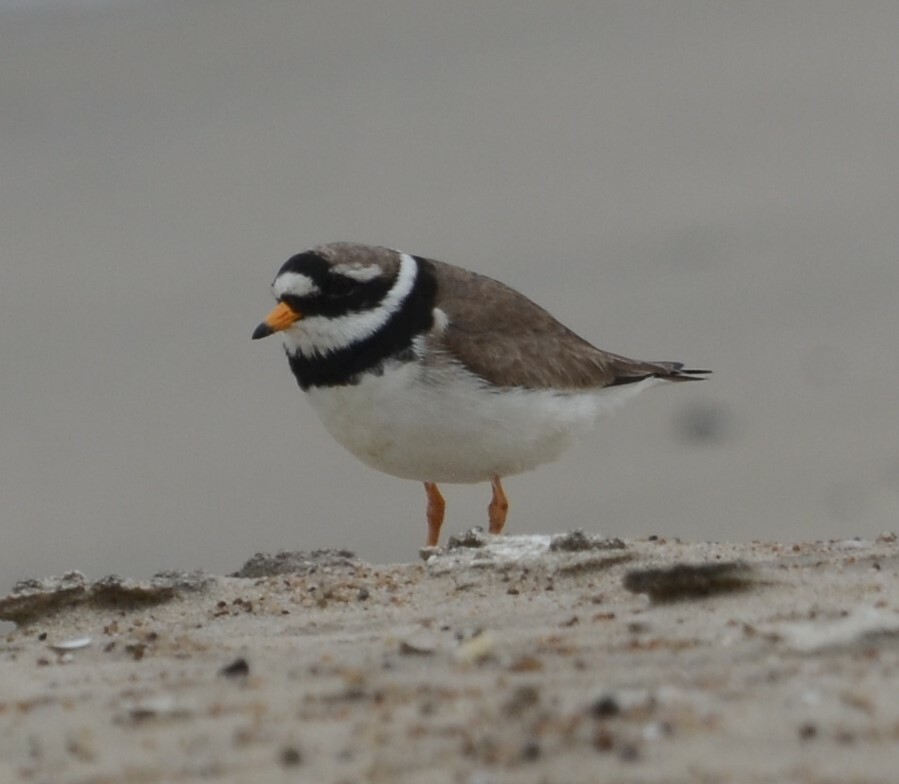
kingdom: Animalia
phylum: Chordata
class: Aves
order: Charadriiformes
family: Charadriidae
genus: Charadrius
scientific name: Charadrius hiaticula
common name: Common ringed plover
